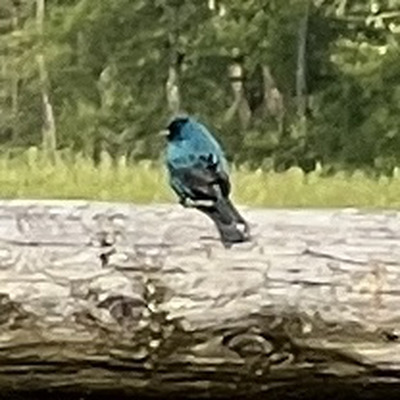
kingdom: Animalia
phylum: Chordata
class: Aves
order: Passeriformes
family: Cardinalidae
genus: Passerina
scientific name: Passerina cyanea
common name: Indigo bunting
